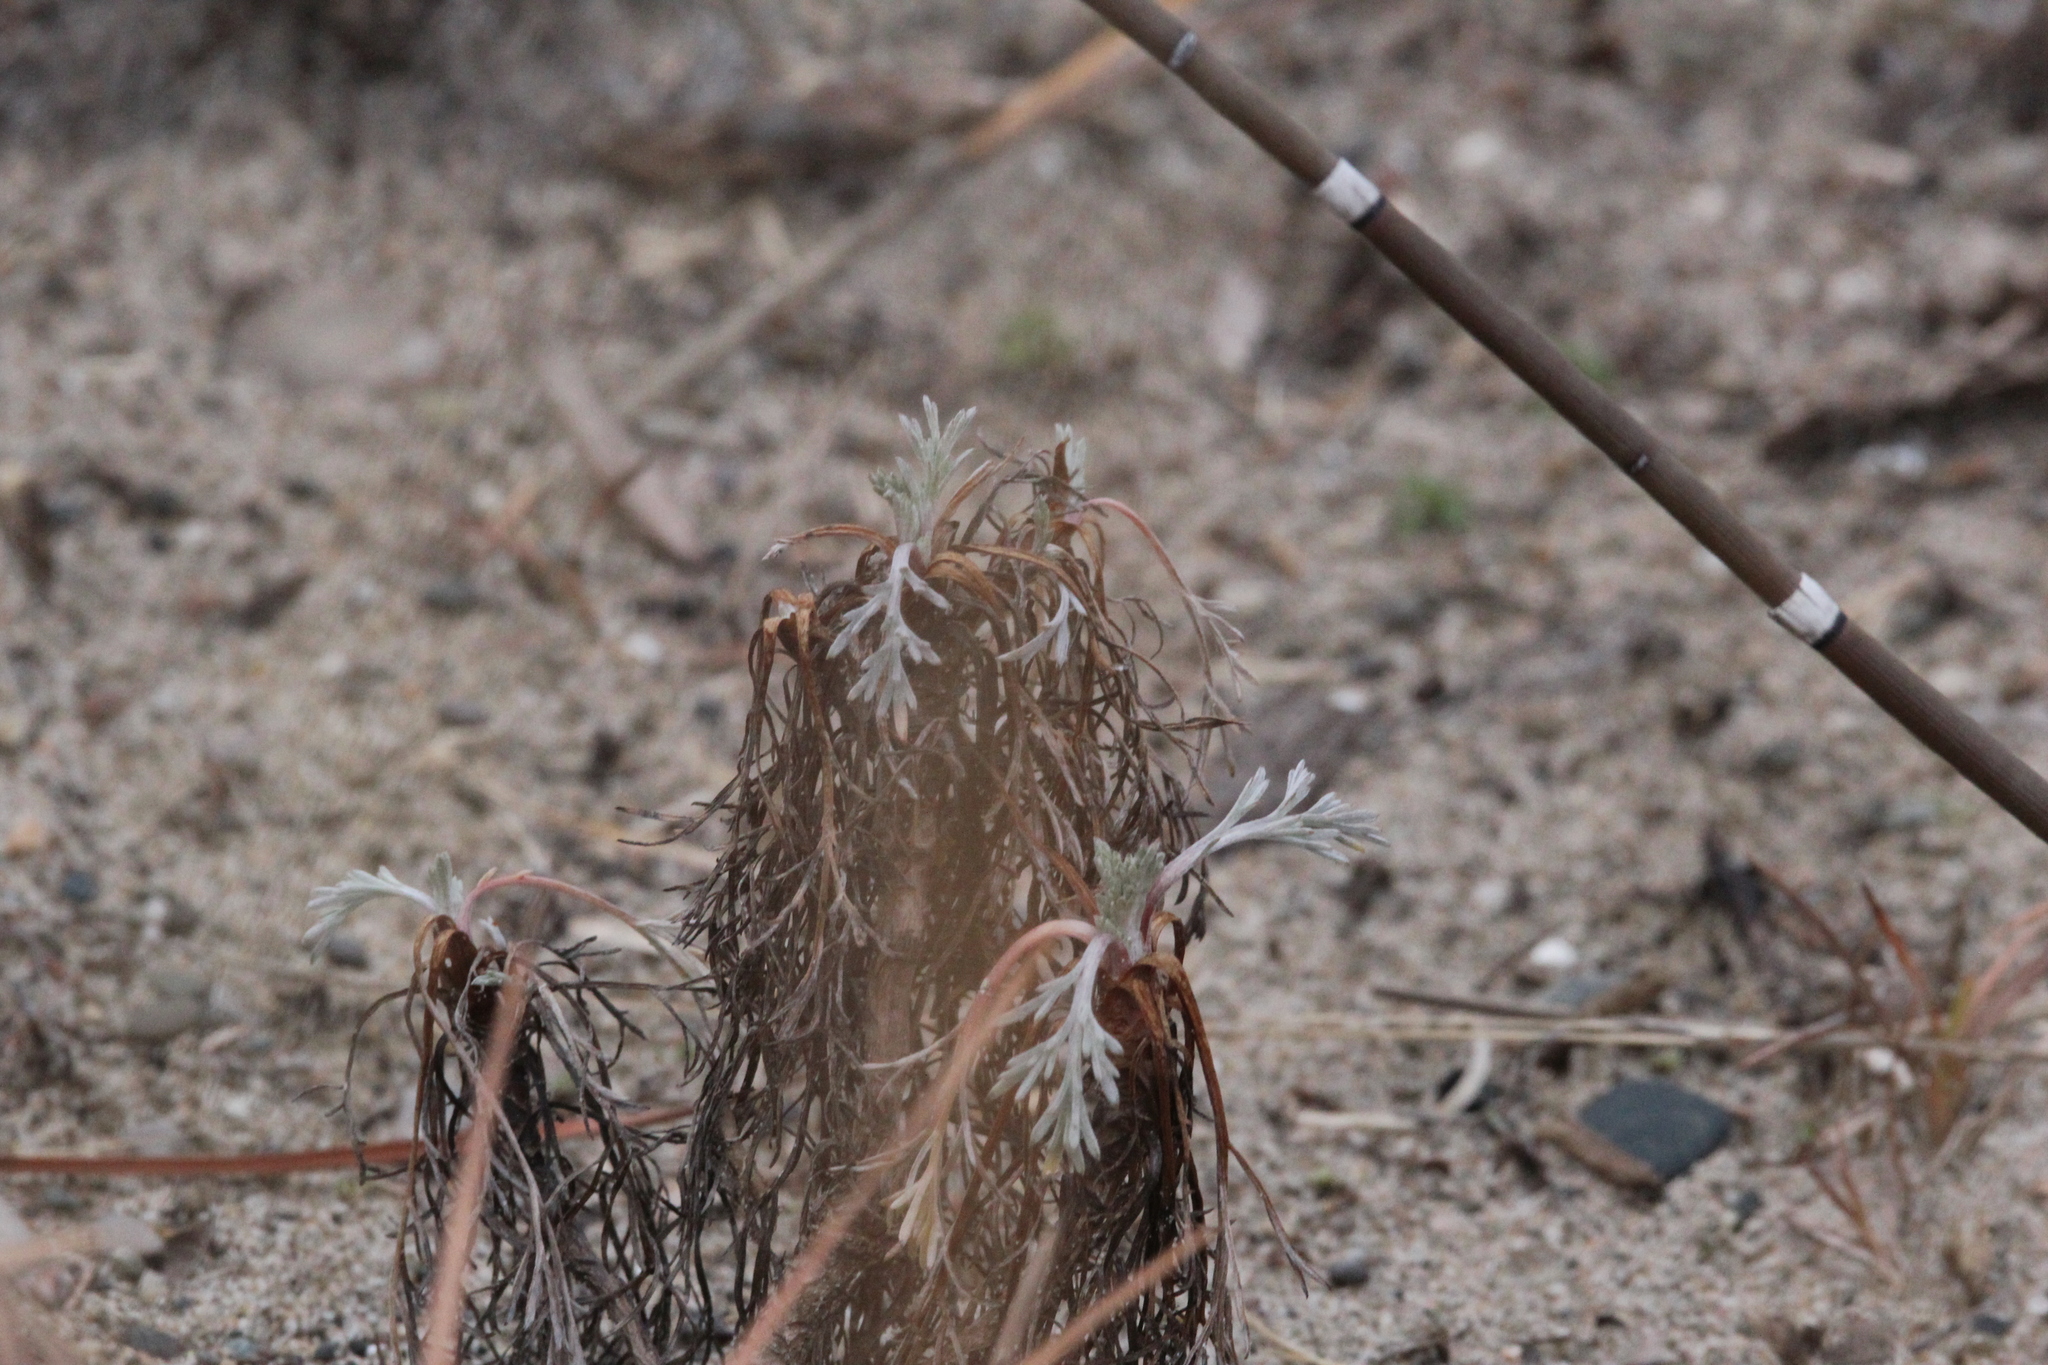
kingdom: Plantae
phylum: Tracheophyta
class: Magnoliopsida
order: Asterales
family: Asteraceae
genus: Artemisia
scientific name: Artemisia campestris
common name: Field wormwood
